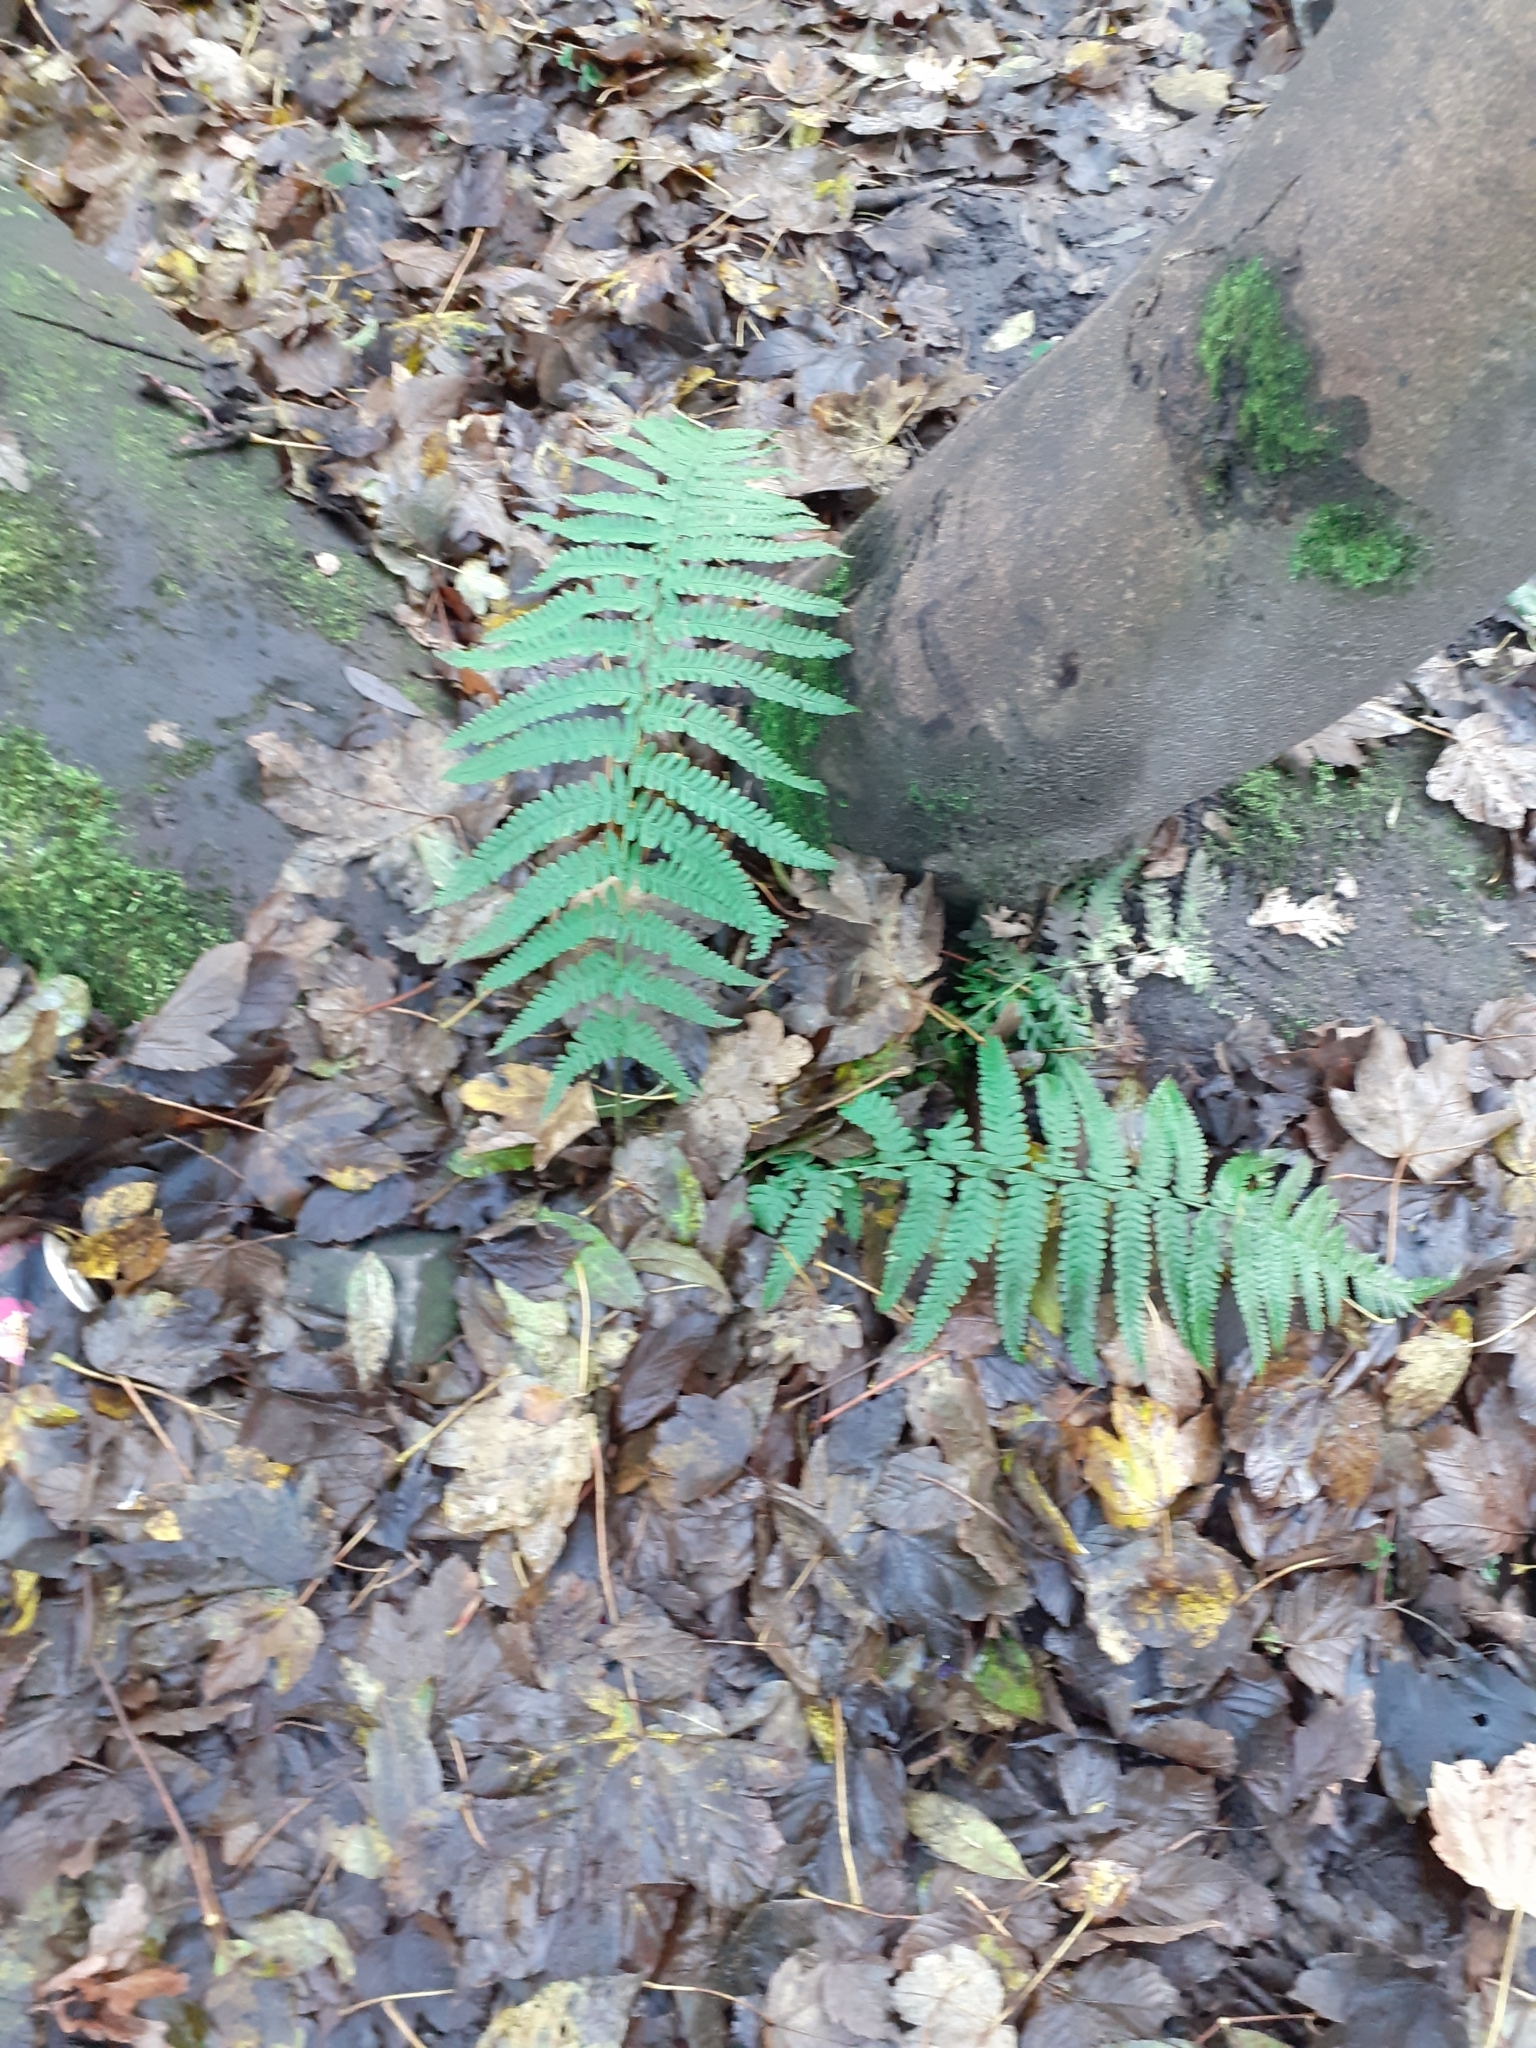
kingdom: Plantae
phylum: Tracheophyta
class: Polypodiopsida
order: Polypodiales
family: Dryopteridaceae
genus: Dryopteris
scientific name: Dryopteris filix-mas
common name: Male fern
